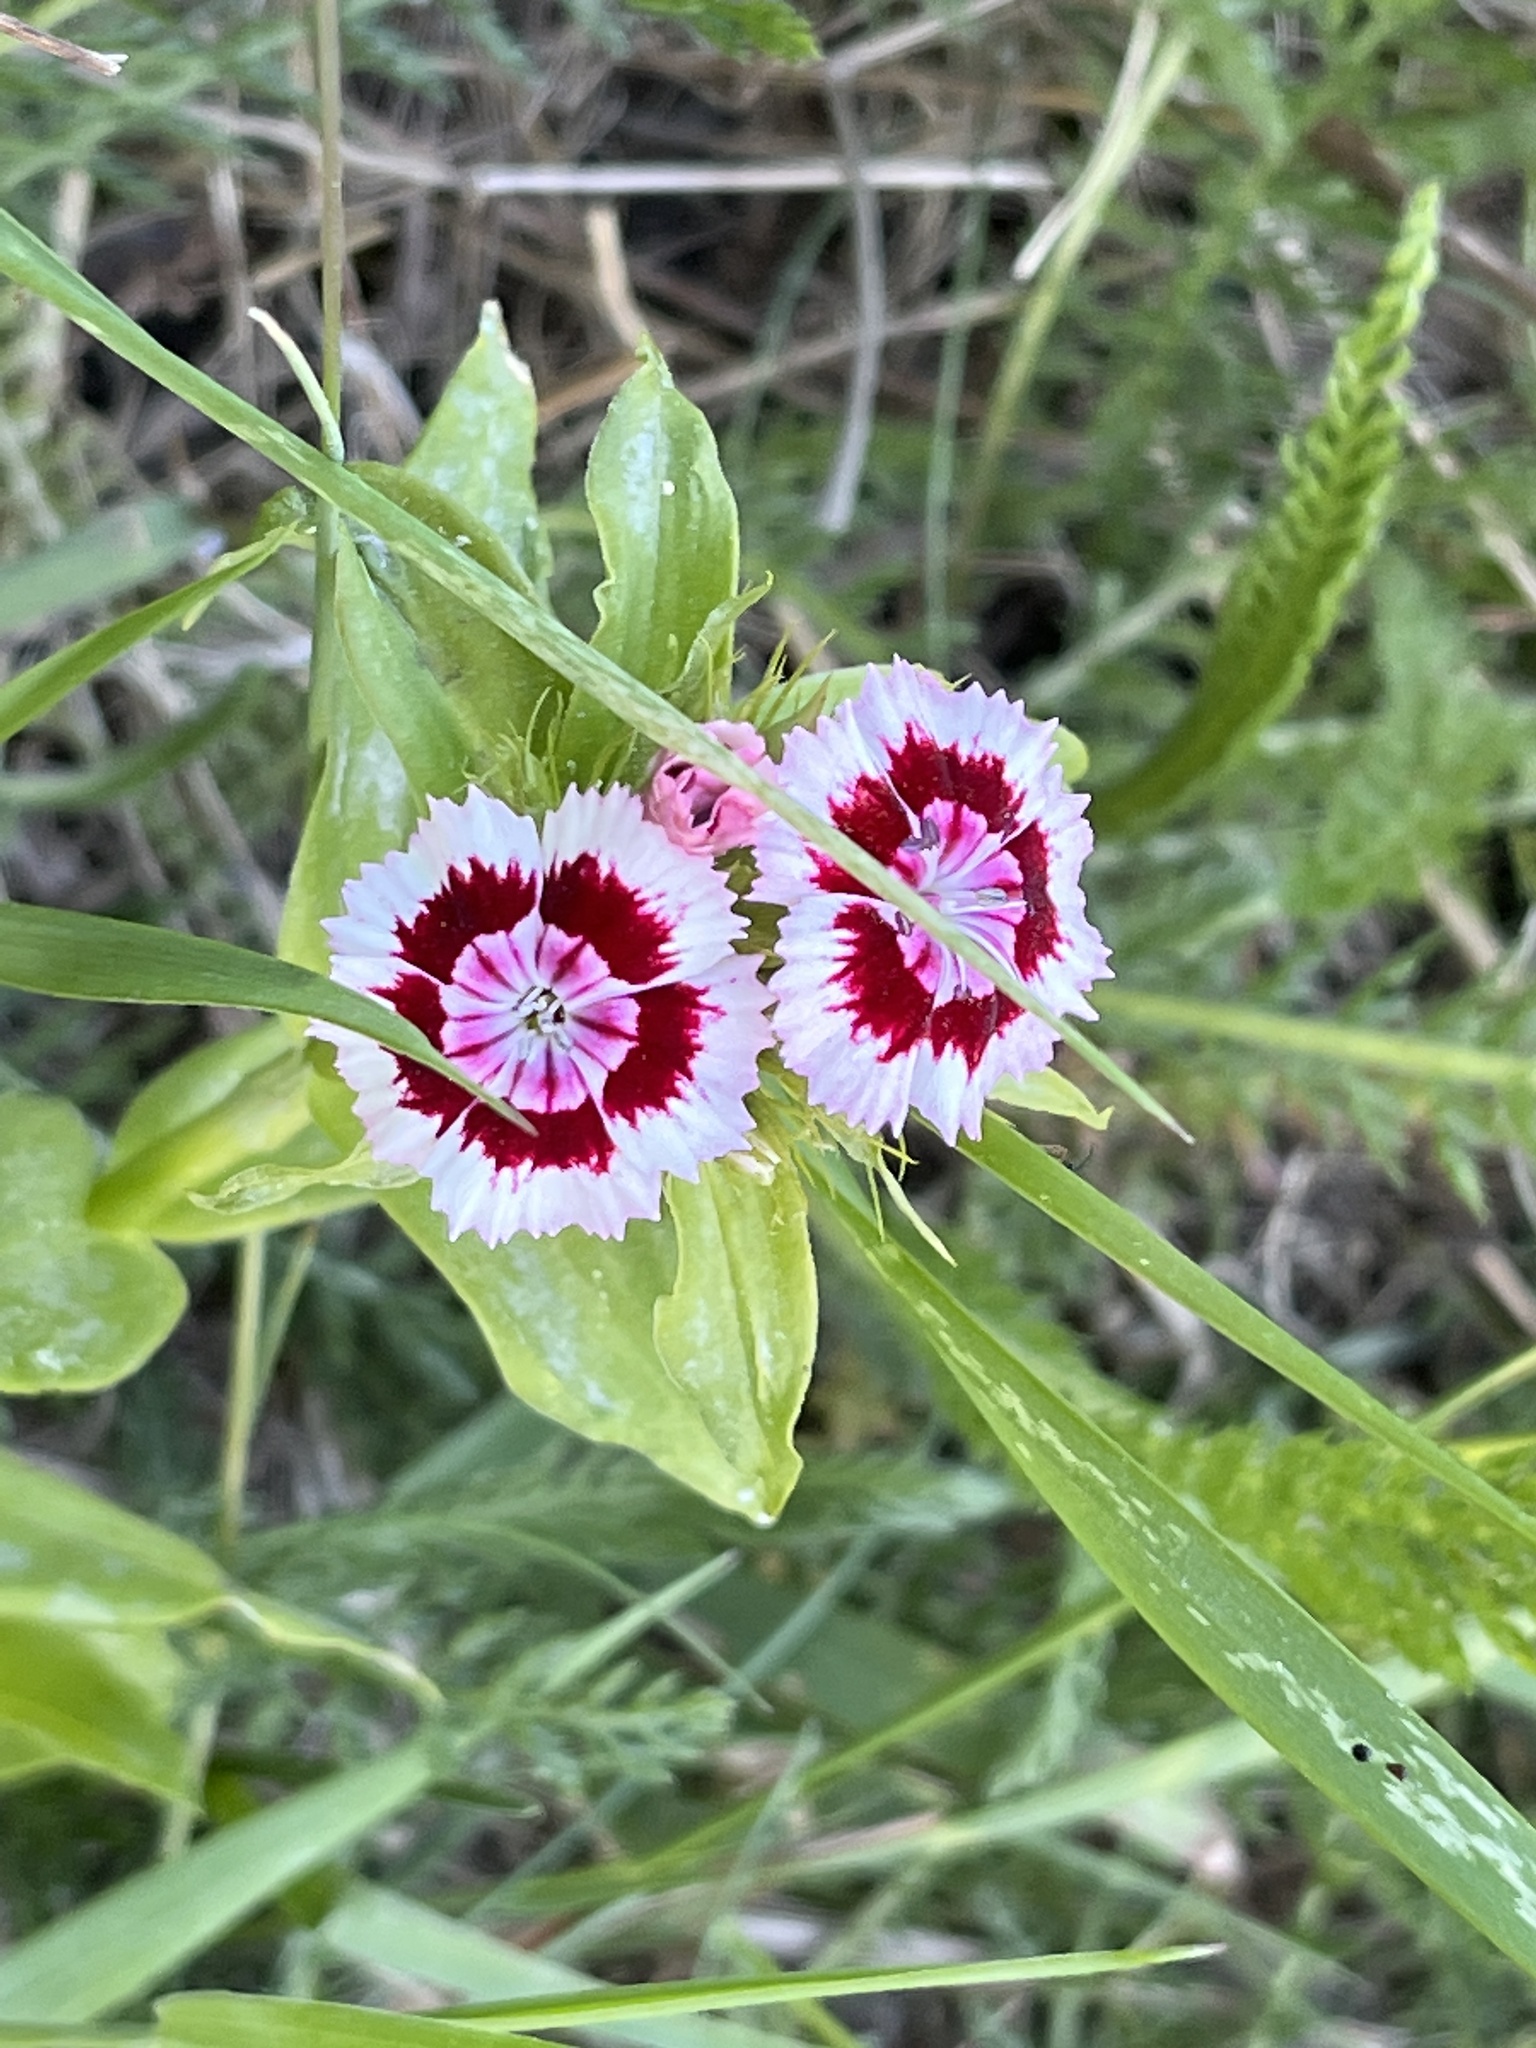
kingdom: Plantae
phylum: Tracheophyta
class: Magnoliopsida
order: Caryophyllales
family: Caryophyllaceae
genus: Dianthus
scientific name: Dianthus barbatus
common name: Sweet-william
